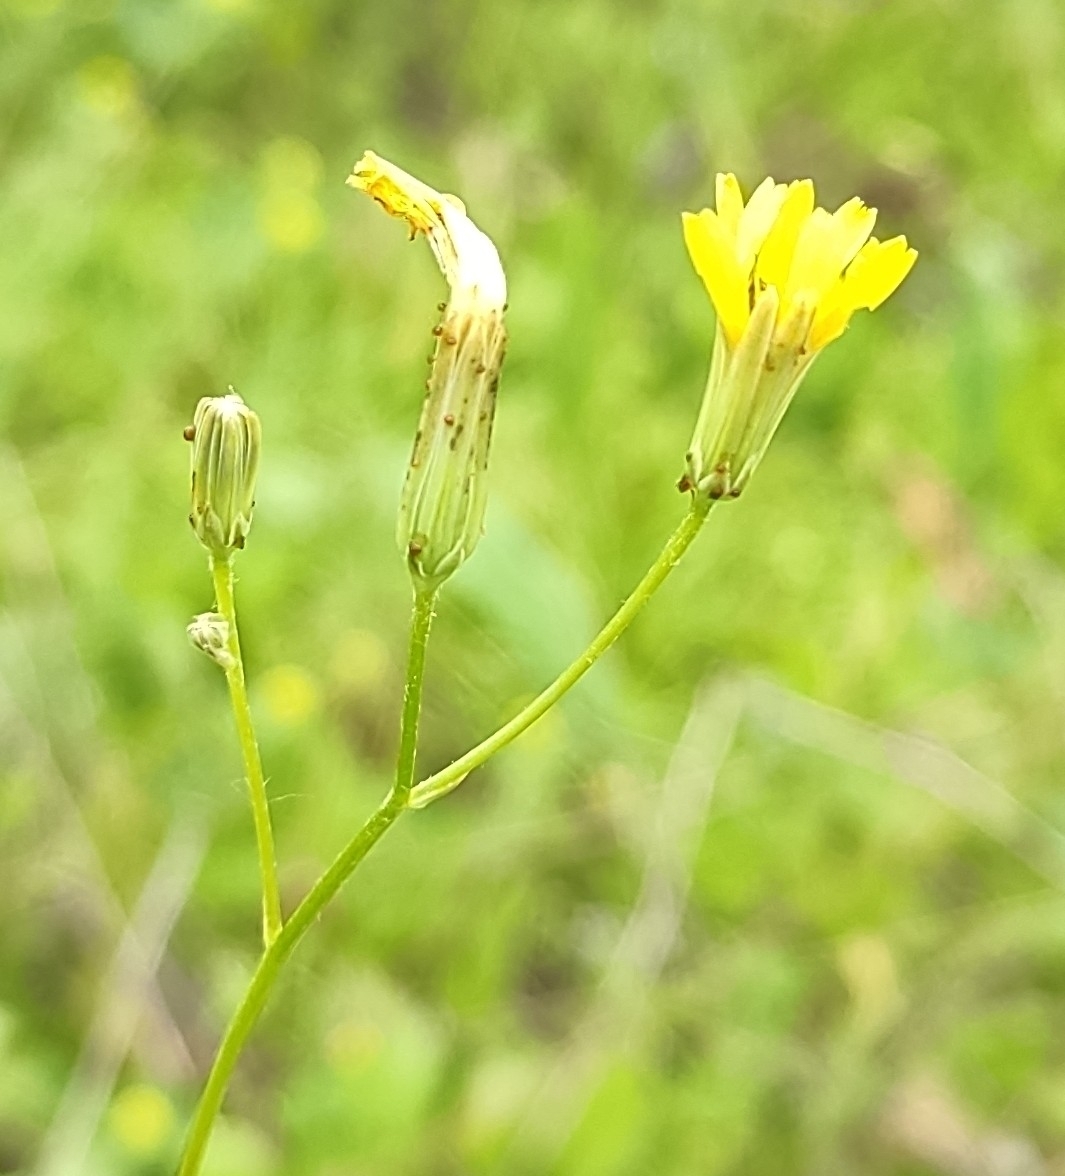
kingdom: Plantae
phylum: Tracheophyta
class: Magnoliopsida
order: Asterales
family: Asteraceae
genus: Crepis
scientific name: Crepis sancta
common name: Hawk's-beard
